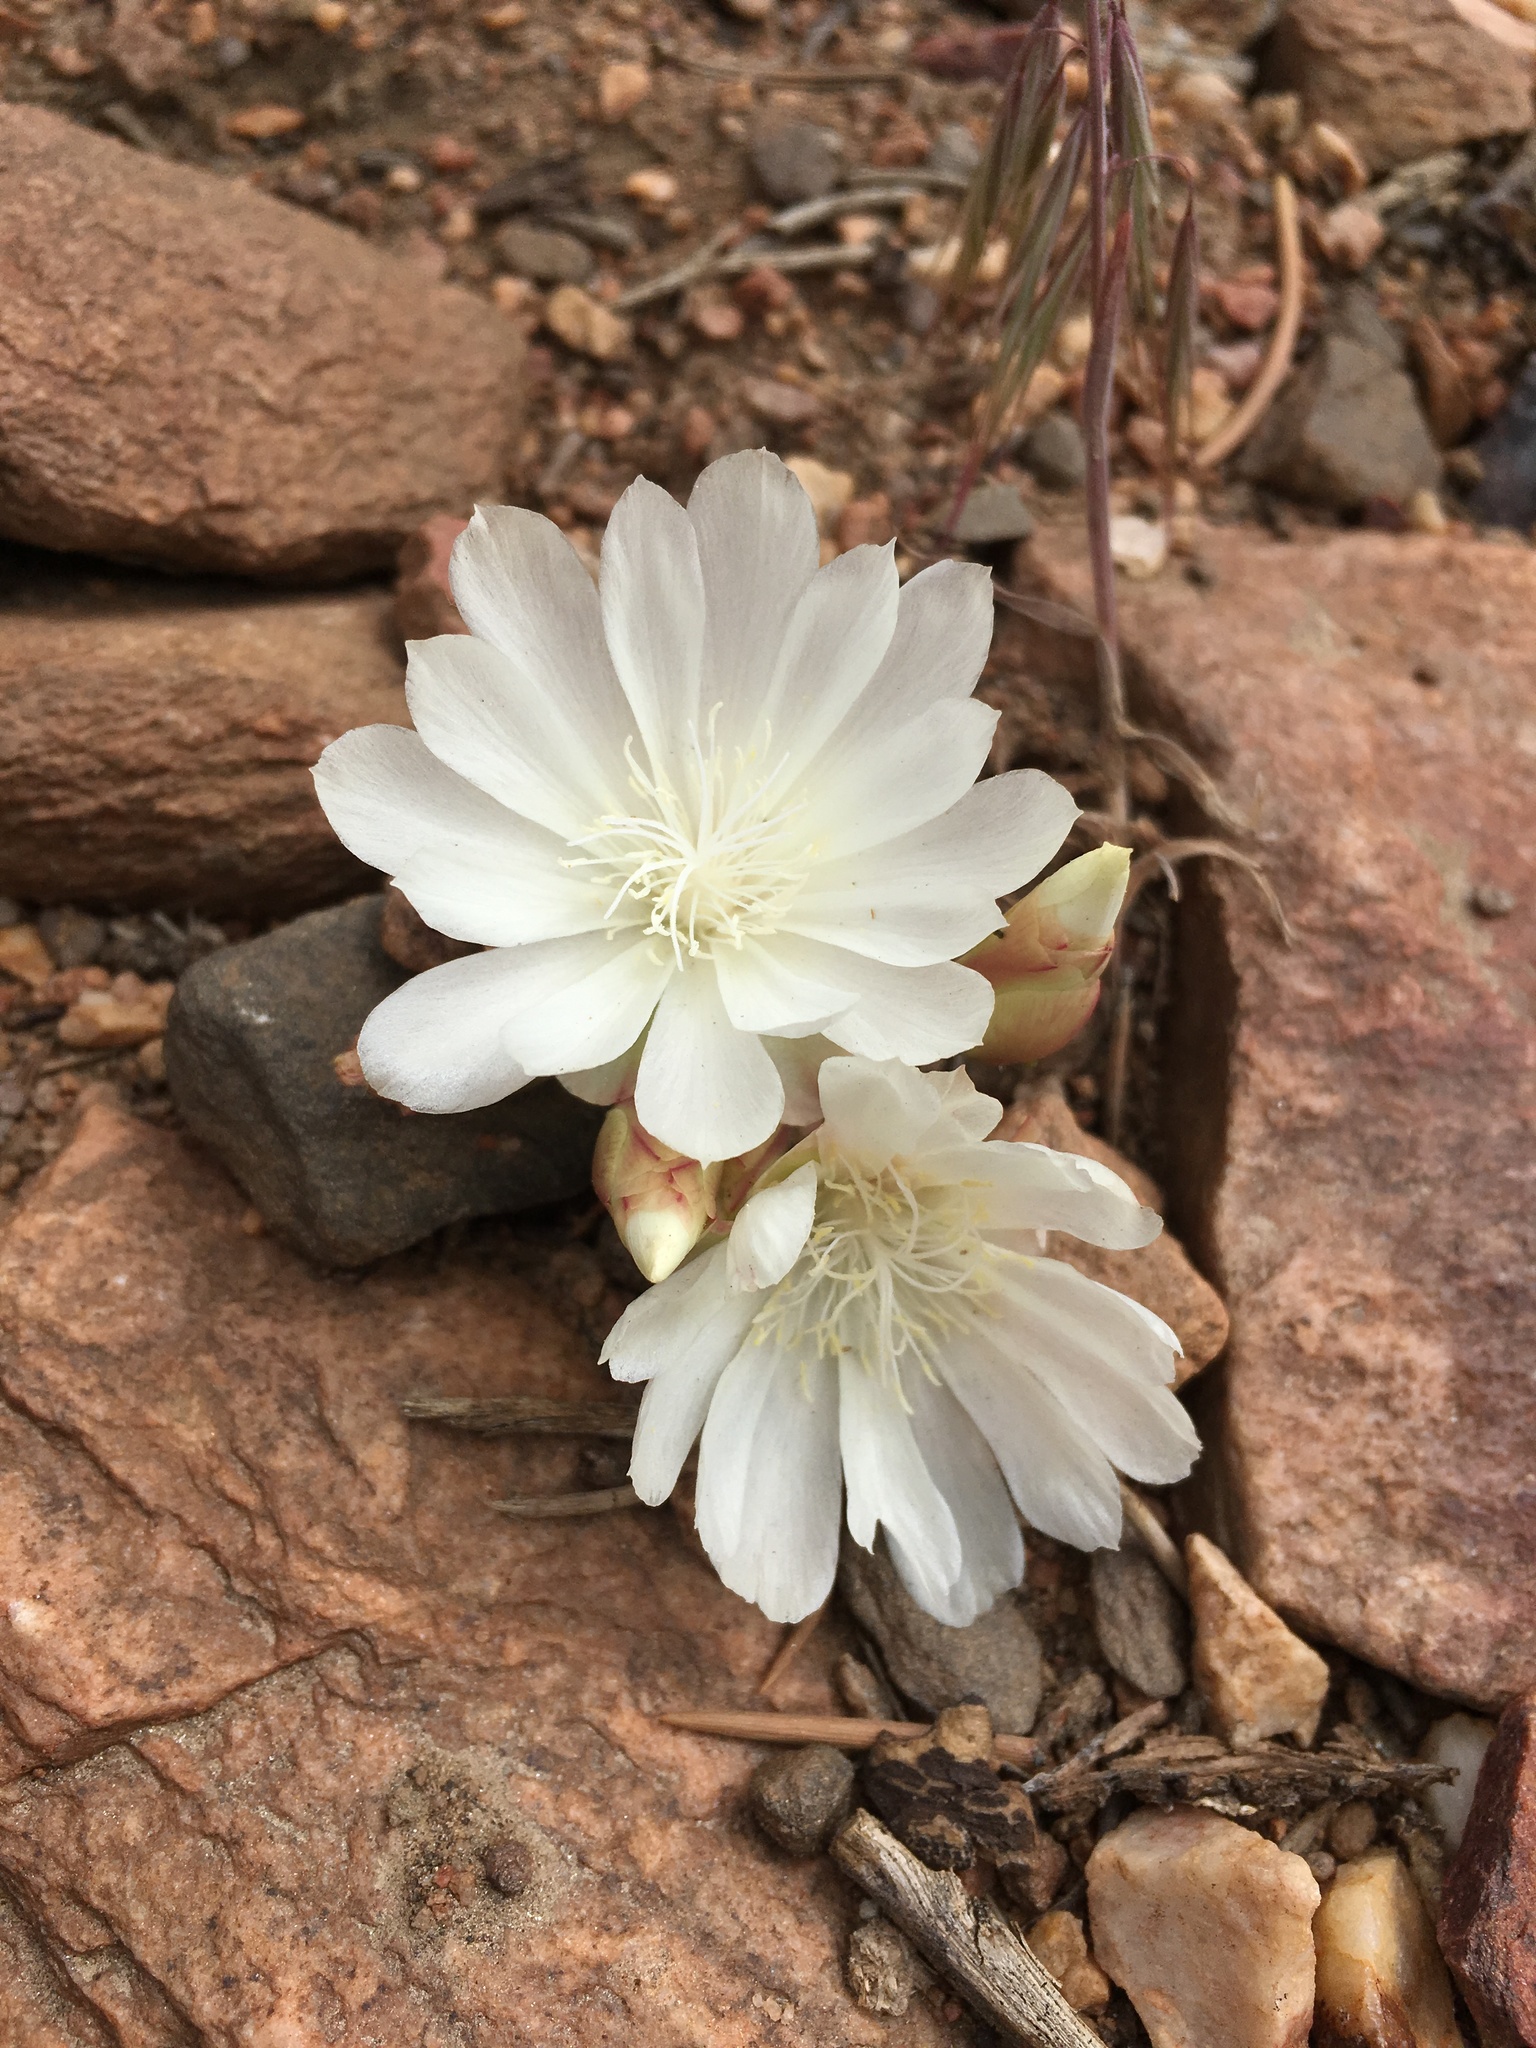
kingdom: Plantae
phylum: Tracheophyta
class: Magnoliopsida
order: Caryophyllales
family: Montiaceae
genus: Lewisia
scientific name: Lewisia rediviva
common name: Bitter-root
